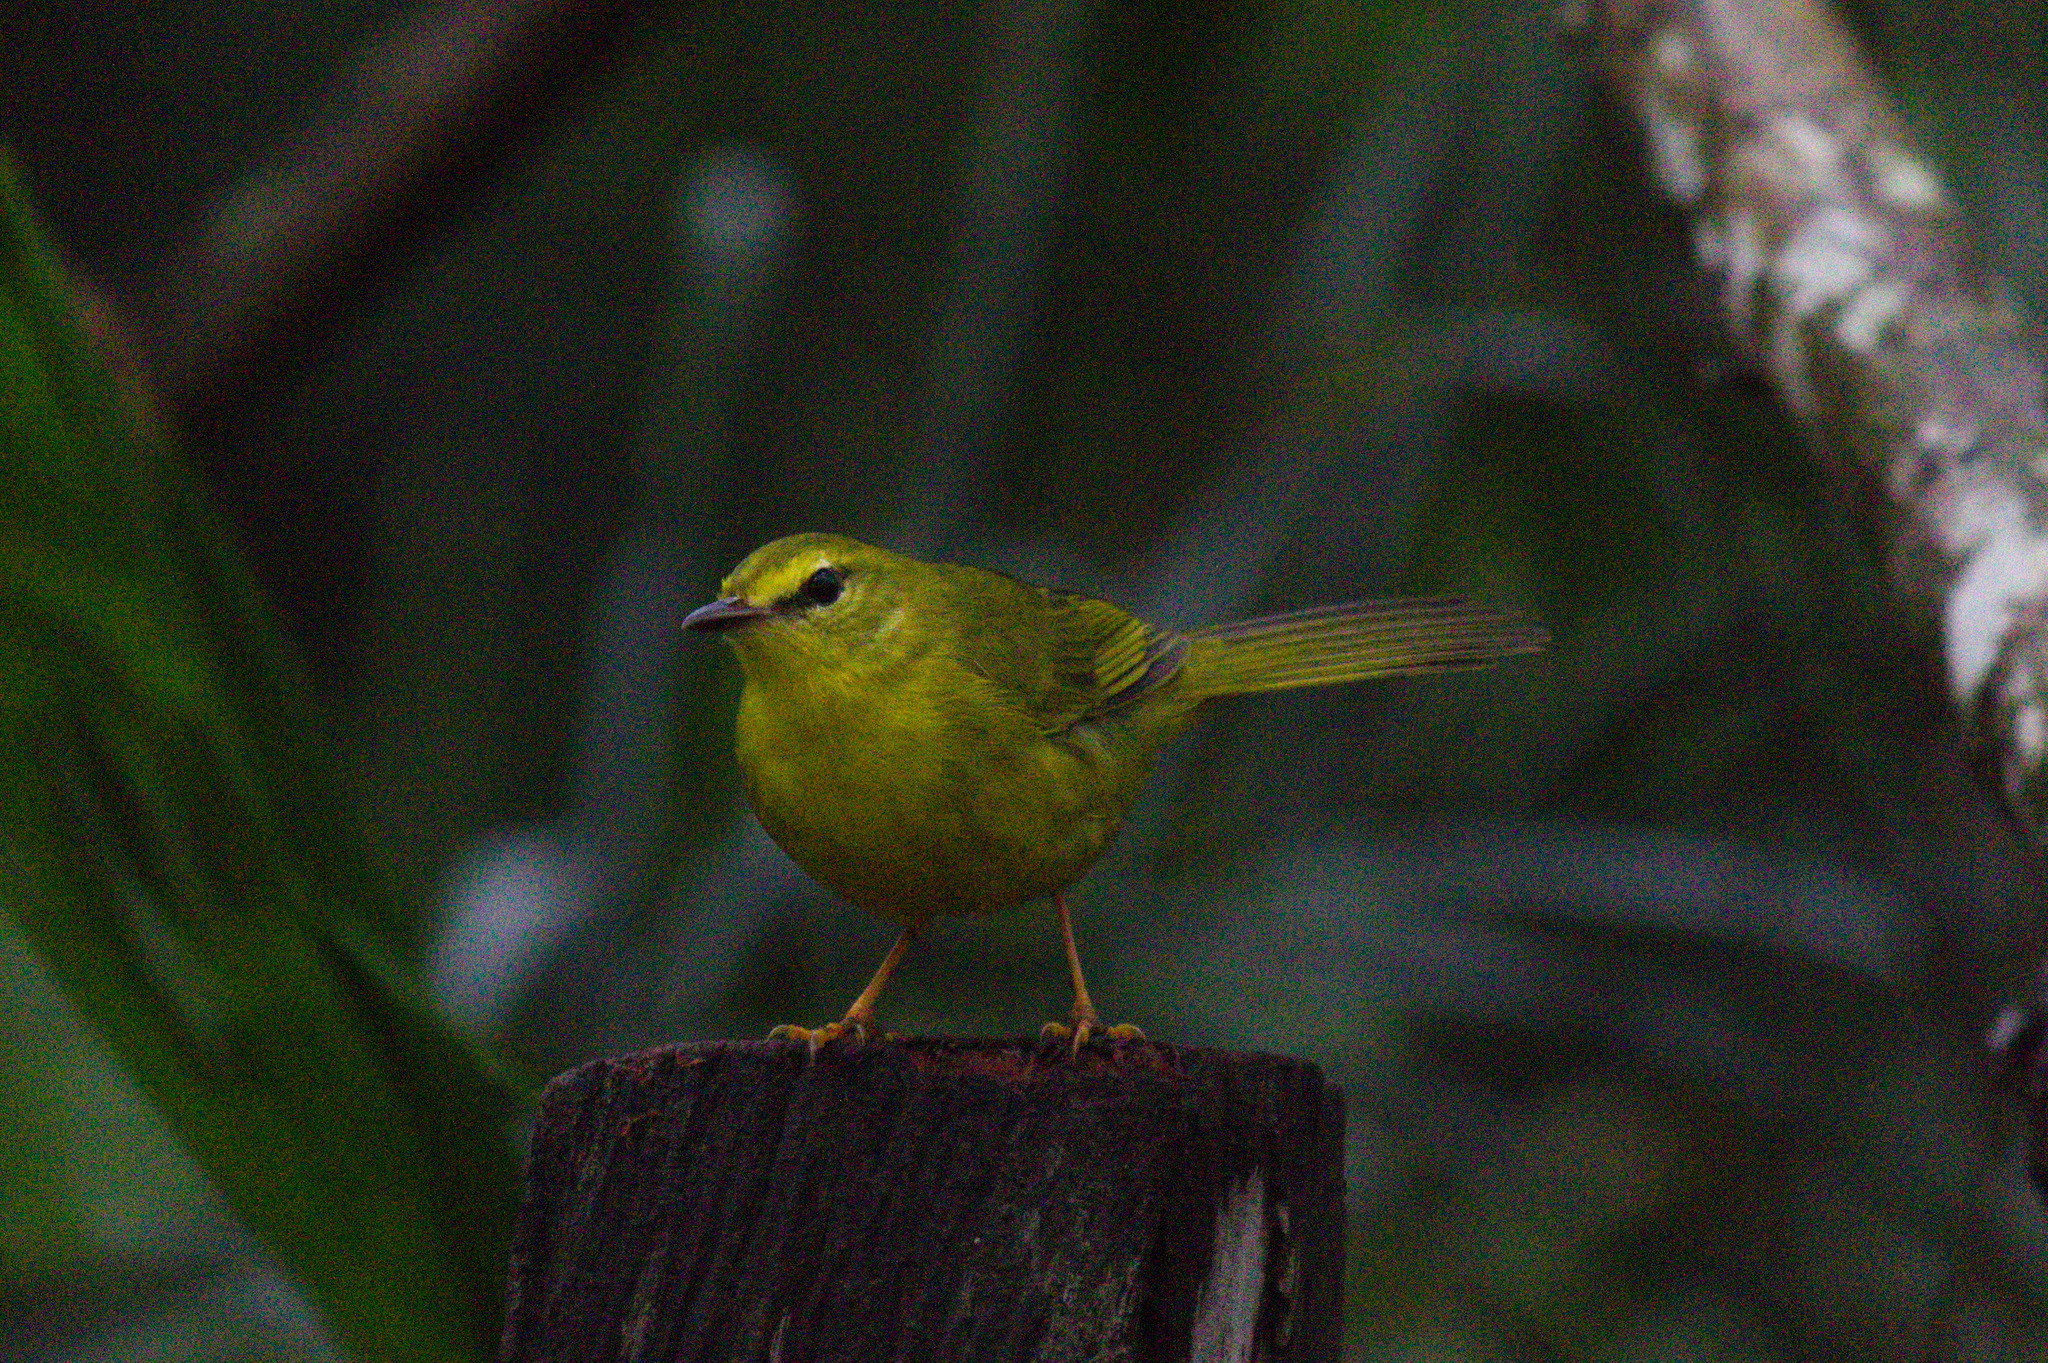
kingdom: Animalia
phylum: Chordata
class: Aves
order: Passeriformes
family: Parulidae
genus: Myiothlypis
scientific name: Myiothlypis flaveola
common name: Flavescent warbler
